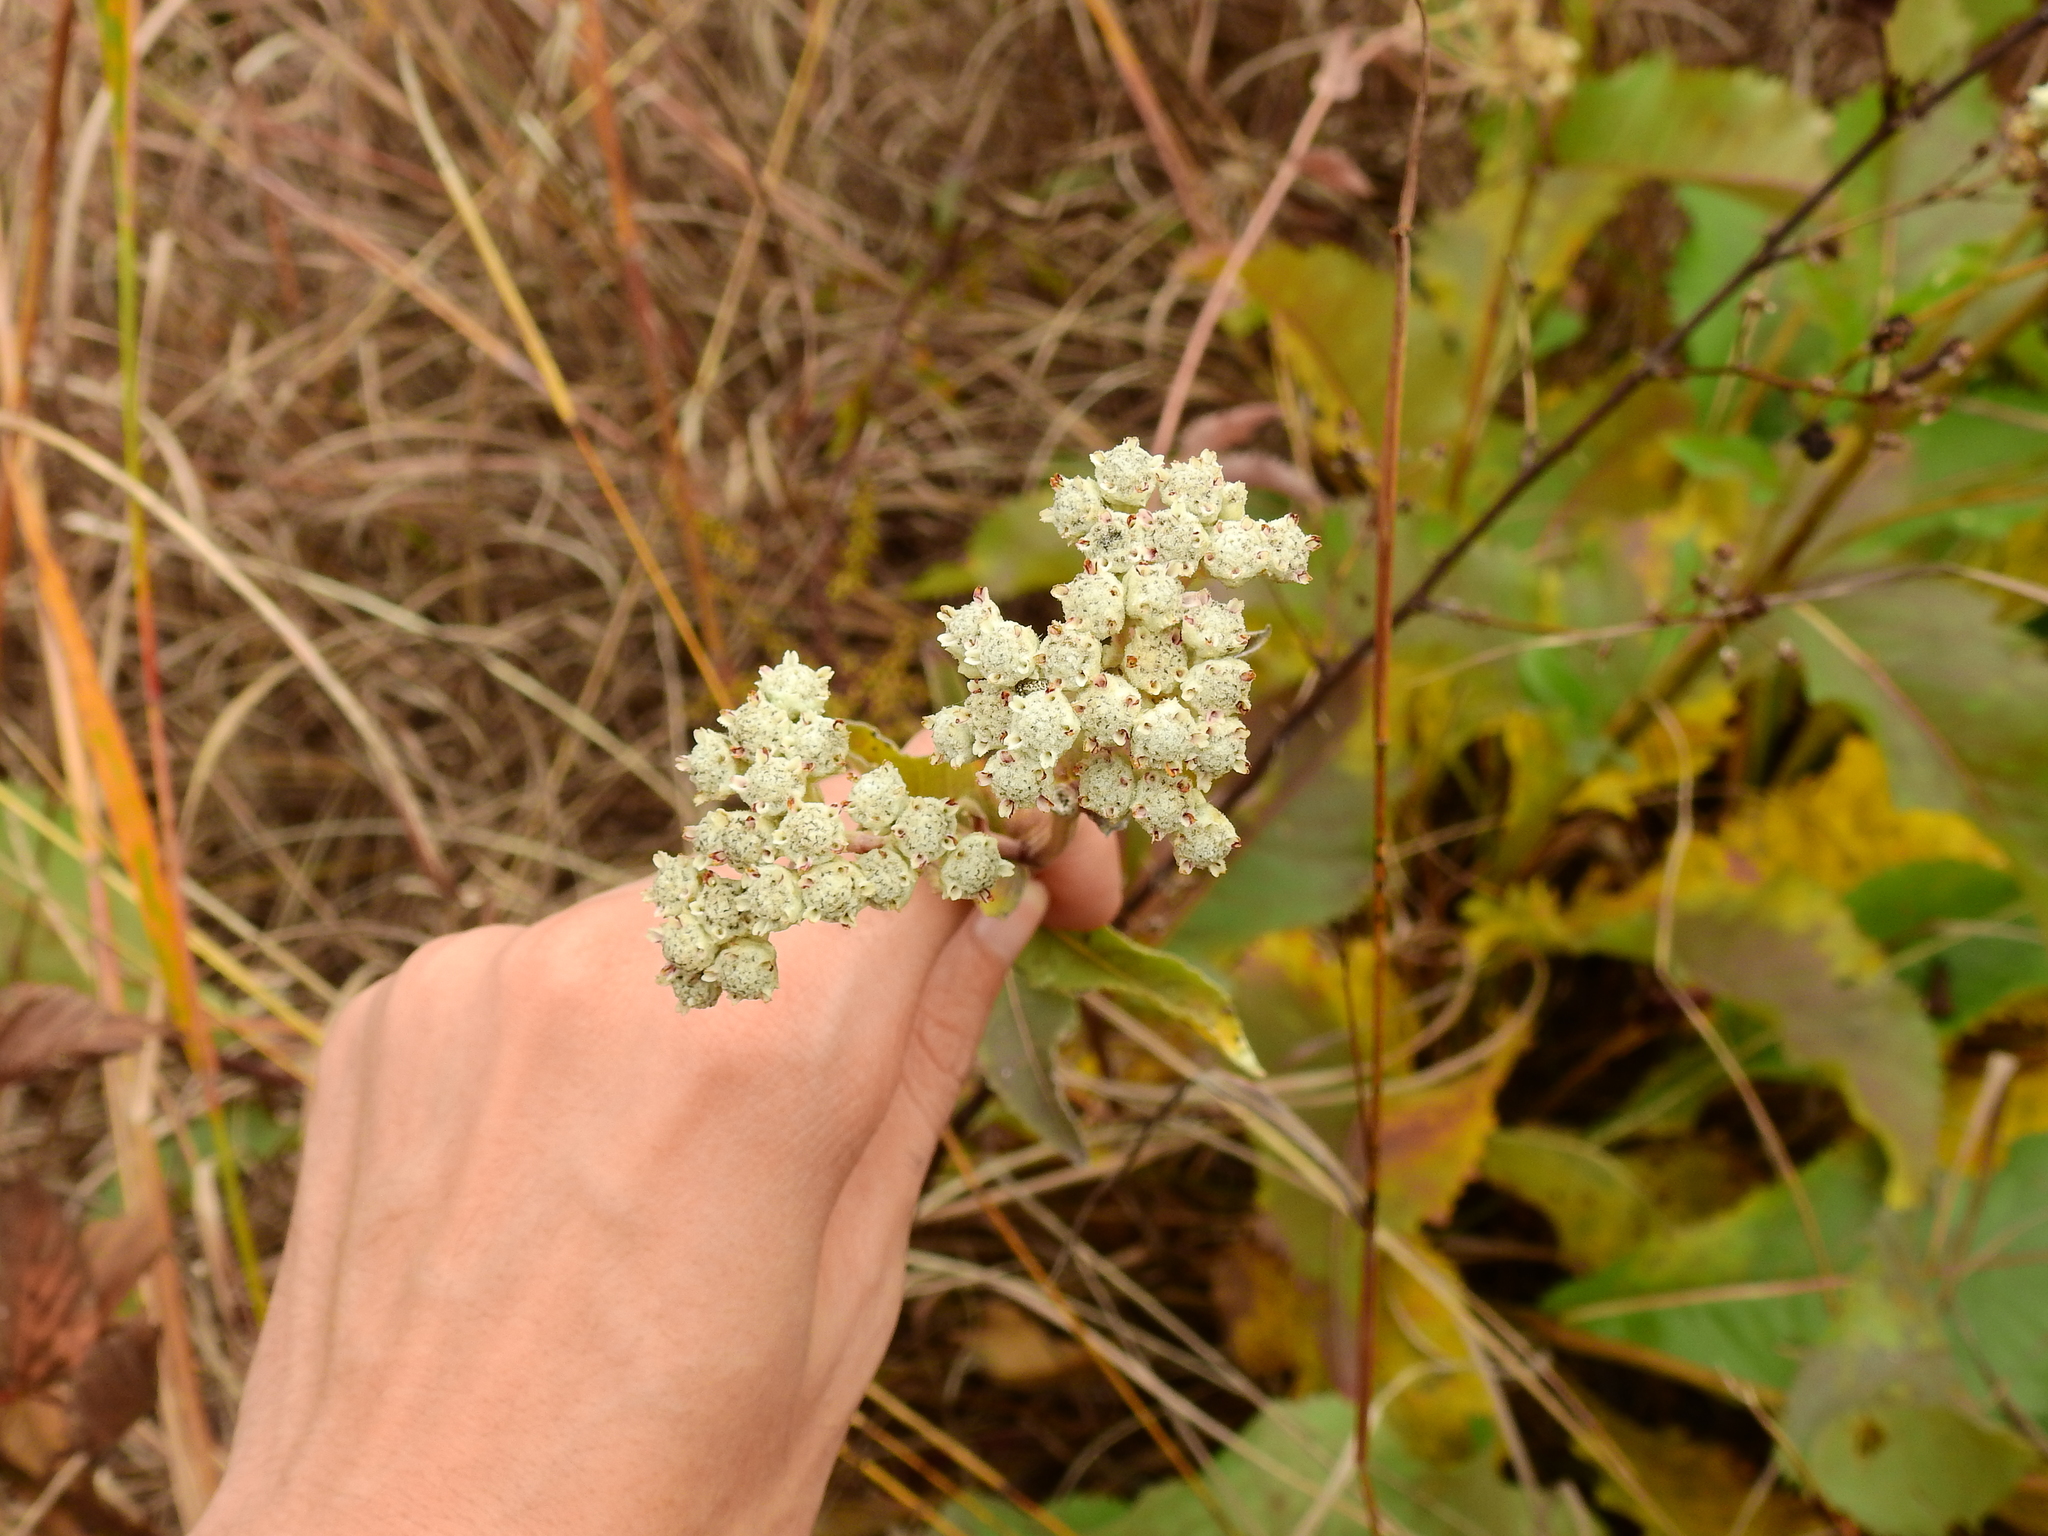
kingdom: Plantae
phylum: Tracheophyta
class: Magnoliopsida
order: Asterales
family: Asteraceae
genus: Parthenium
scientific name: Parthenium integrifolium
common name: American feverfew
